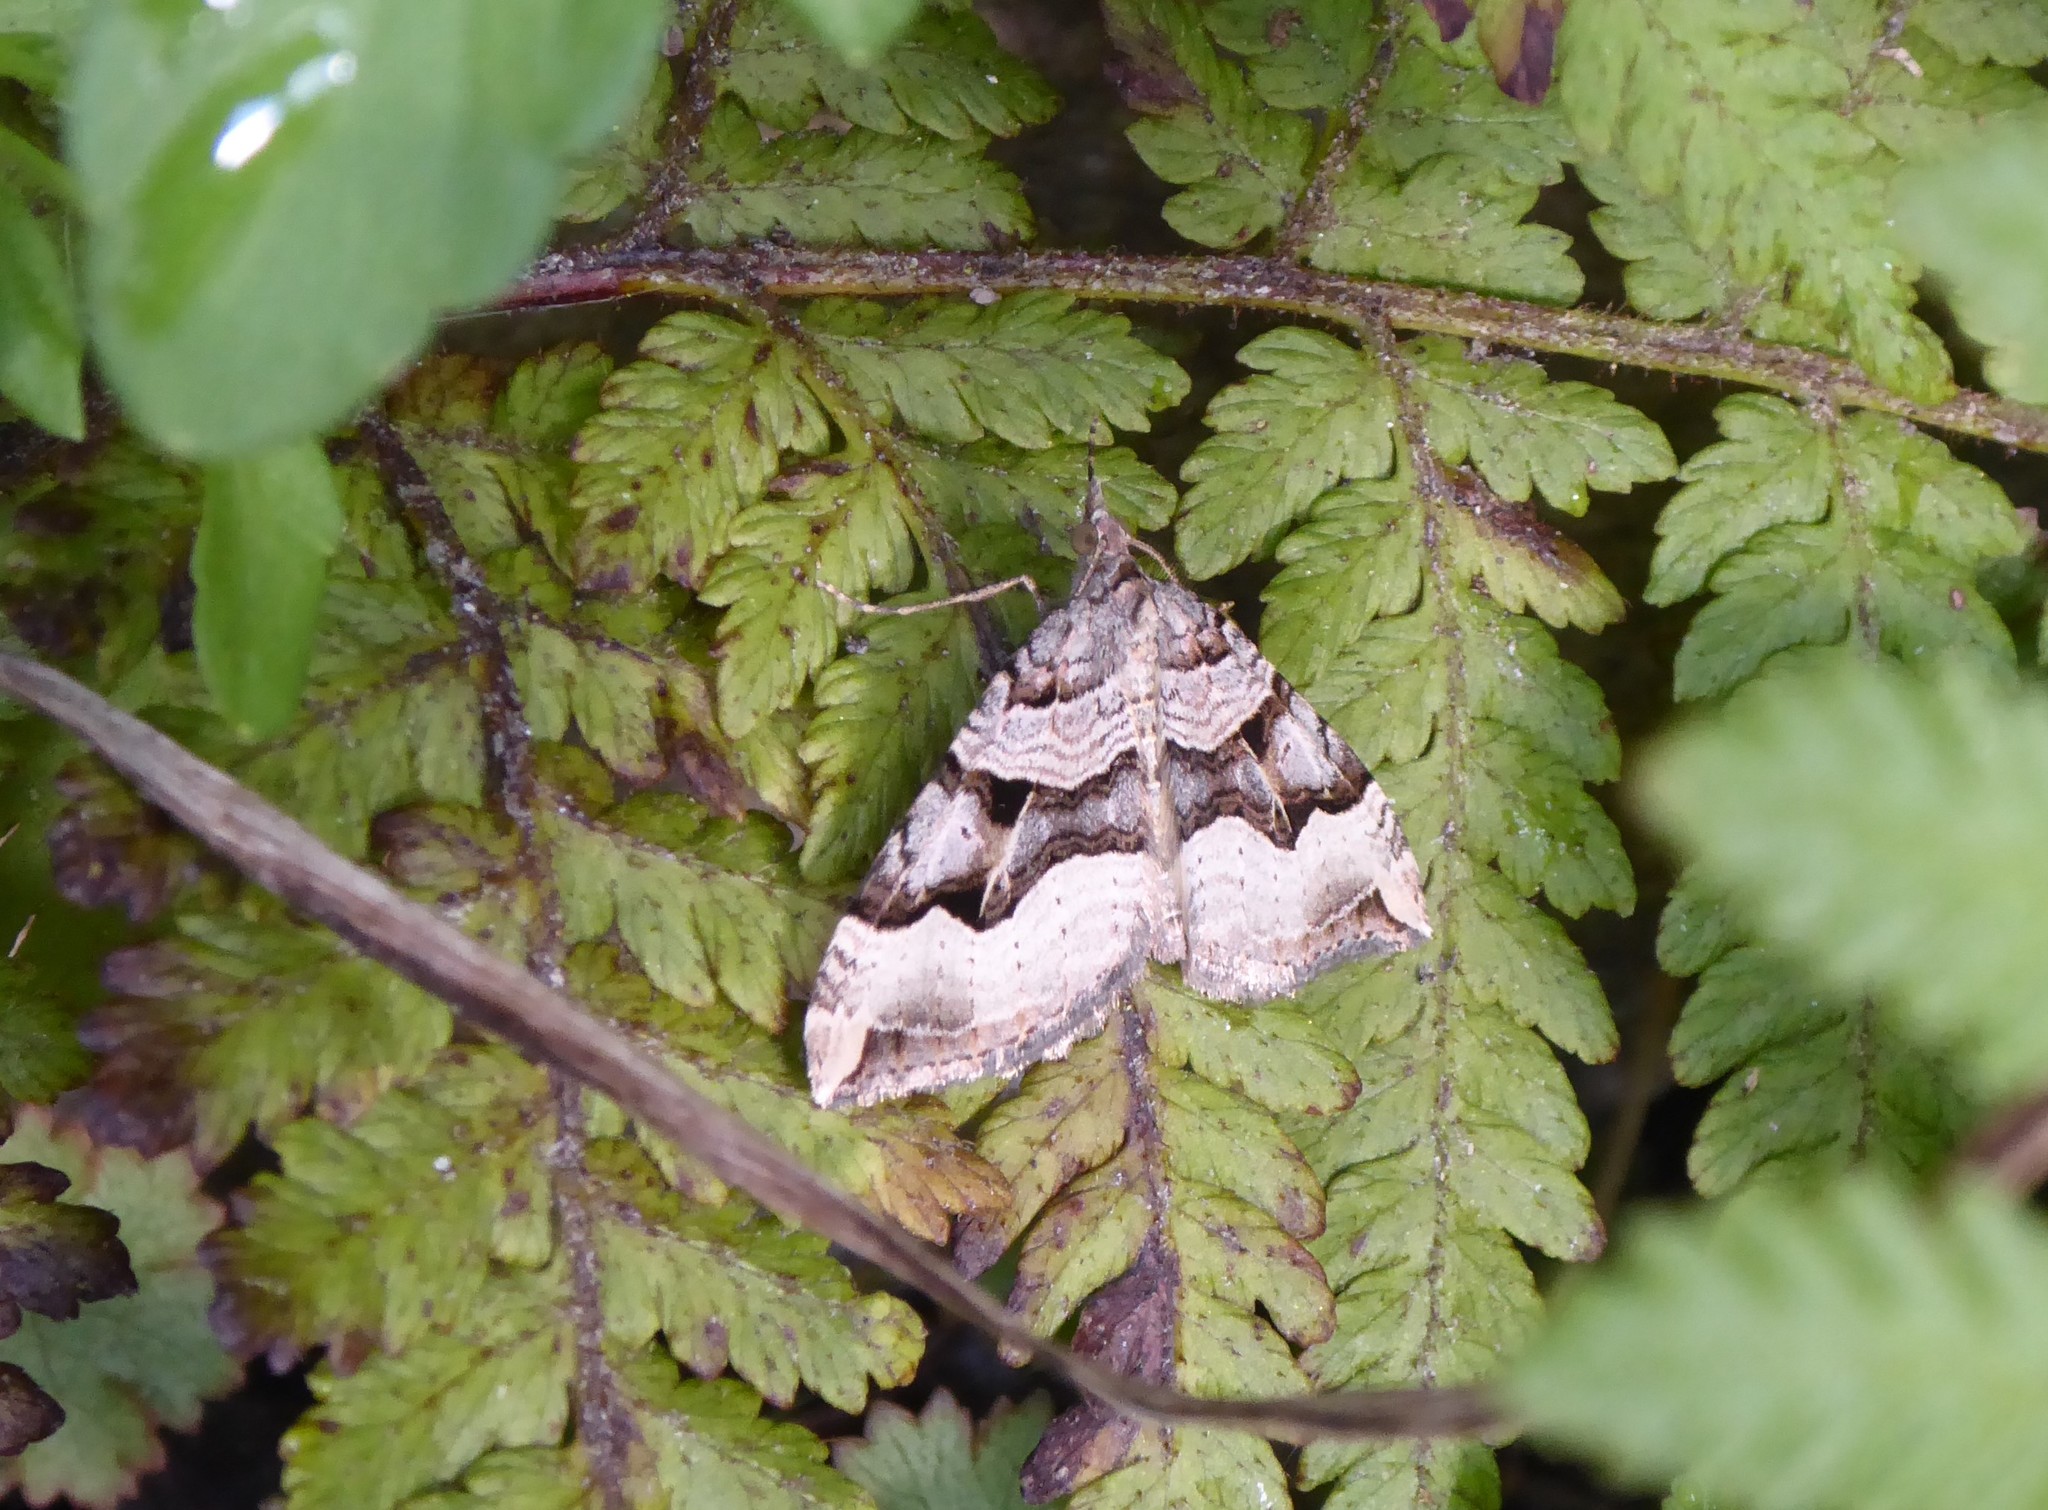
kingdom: Animalia
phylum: Arthropoda
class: Insecta
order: Lepidoptera
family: Geometridae
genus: Xanthorhoe
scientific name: Xanthorhoe semifissata
